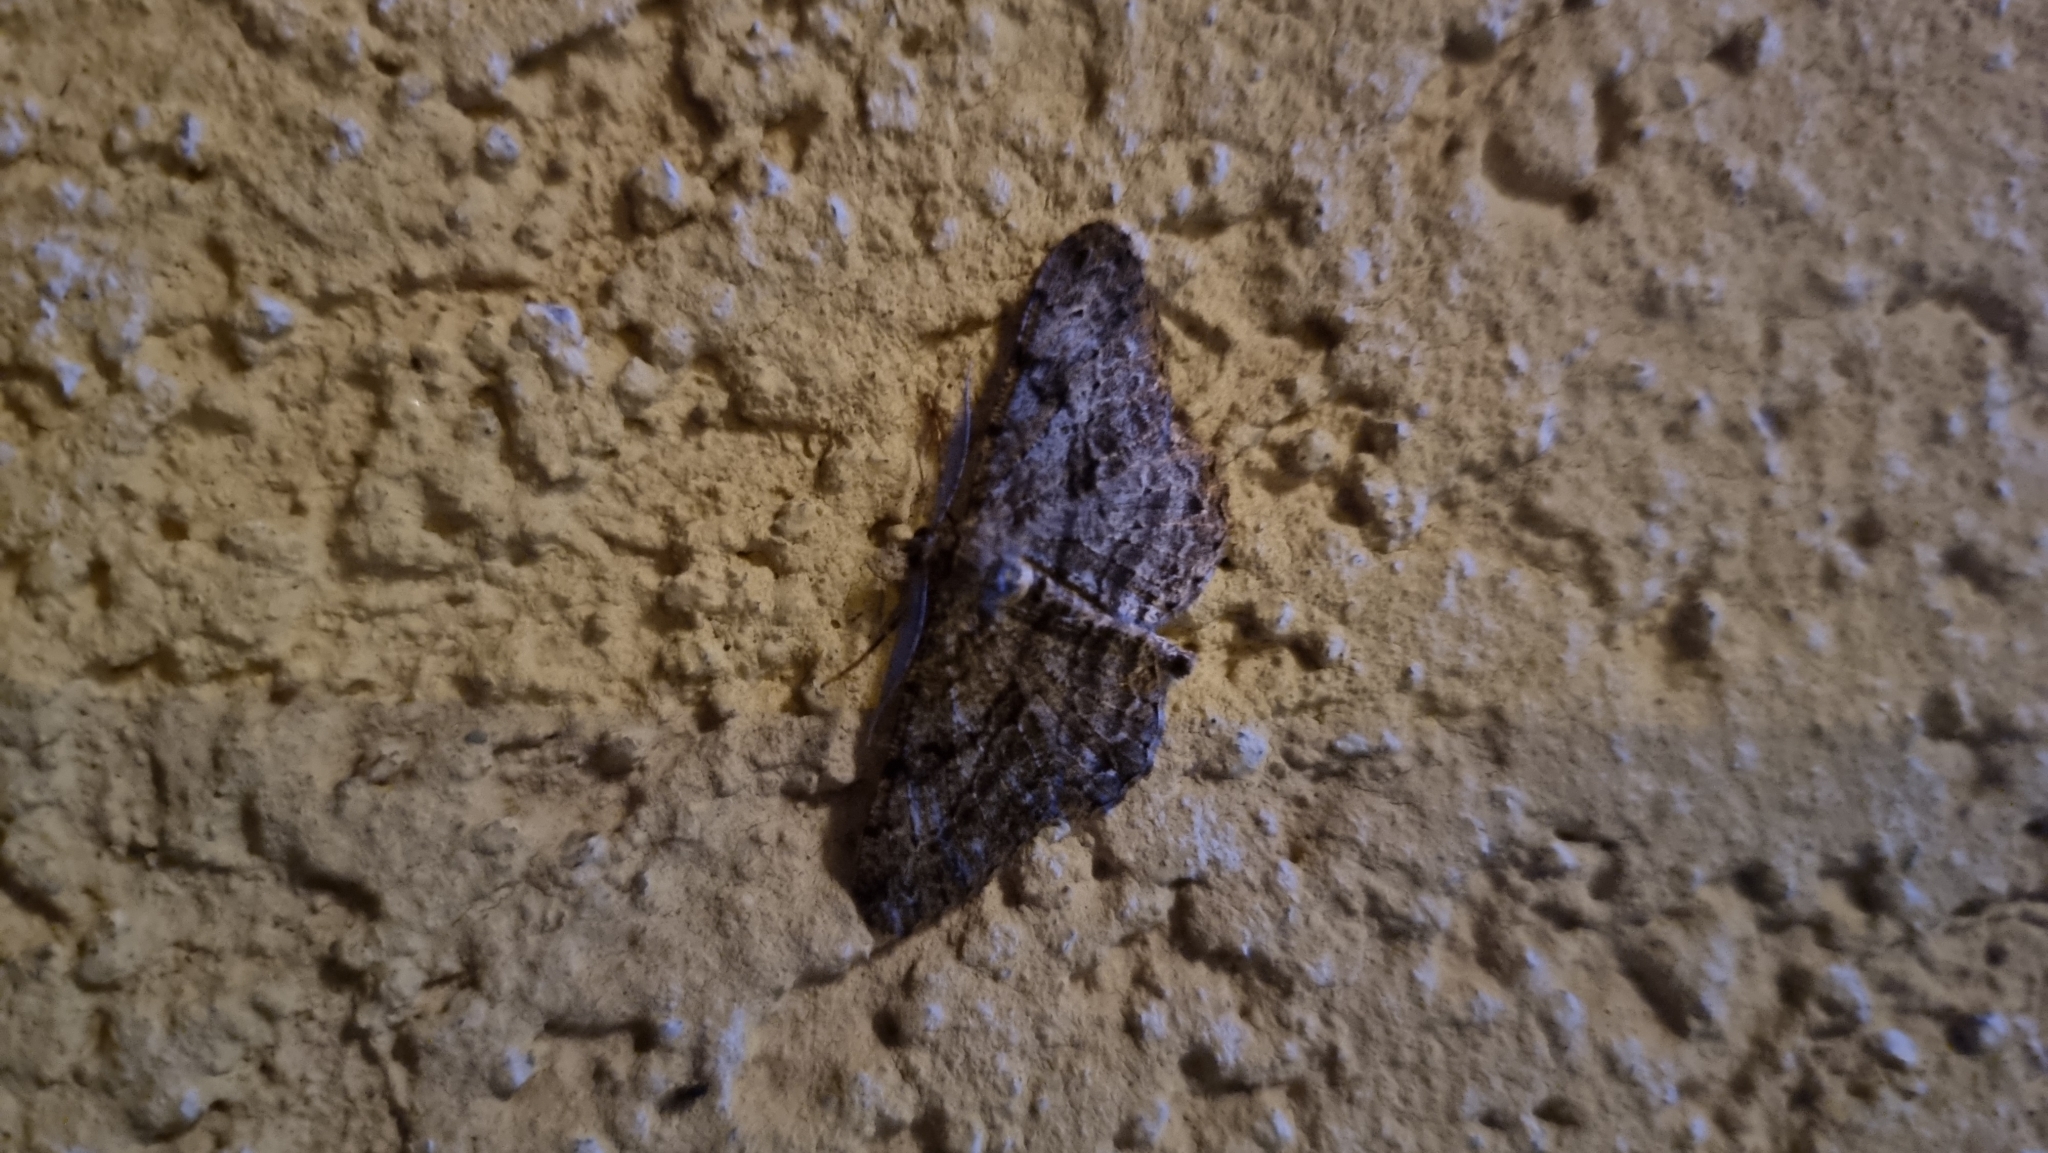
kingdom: Animalia
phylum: Arthropoda
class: Insecta
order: Lepidoptera
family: Geometridae
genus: Peribatodes
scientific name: Peribatodes rhomboidaria
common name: Willow beauty
